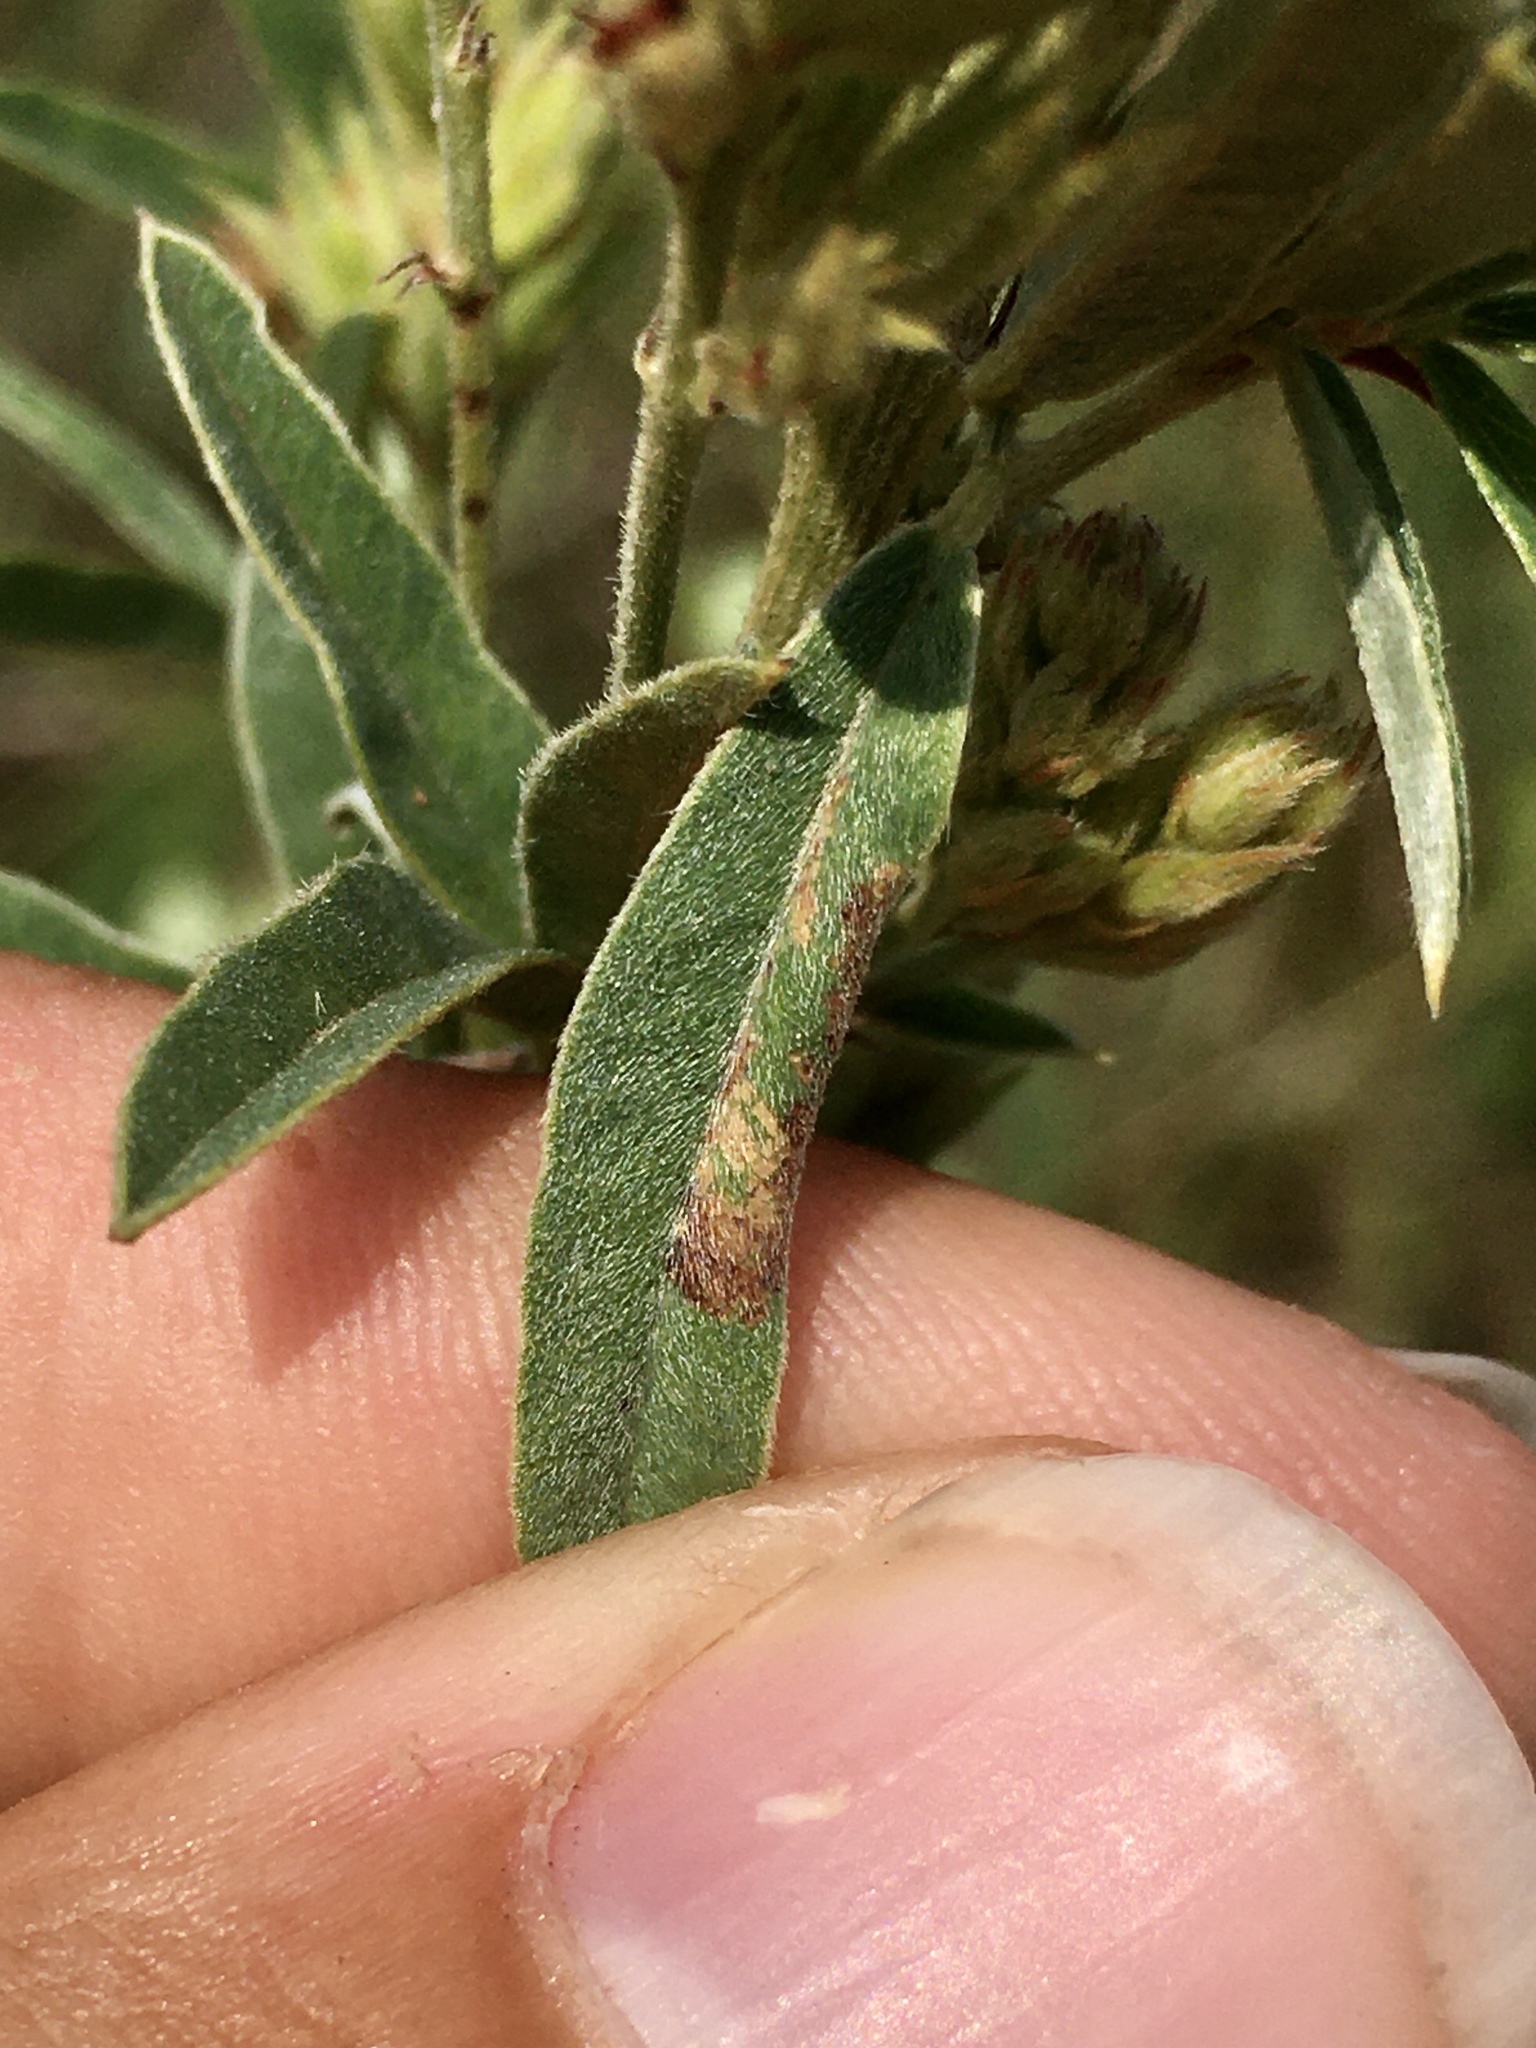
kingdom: Animalia
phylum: Arthropoda
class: Insecta
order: Lepidoptera
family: Gracillariidae
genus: Porphyrosela
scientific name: Porphyrosela desmodiella
